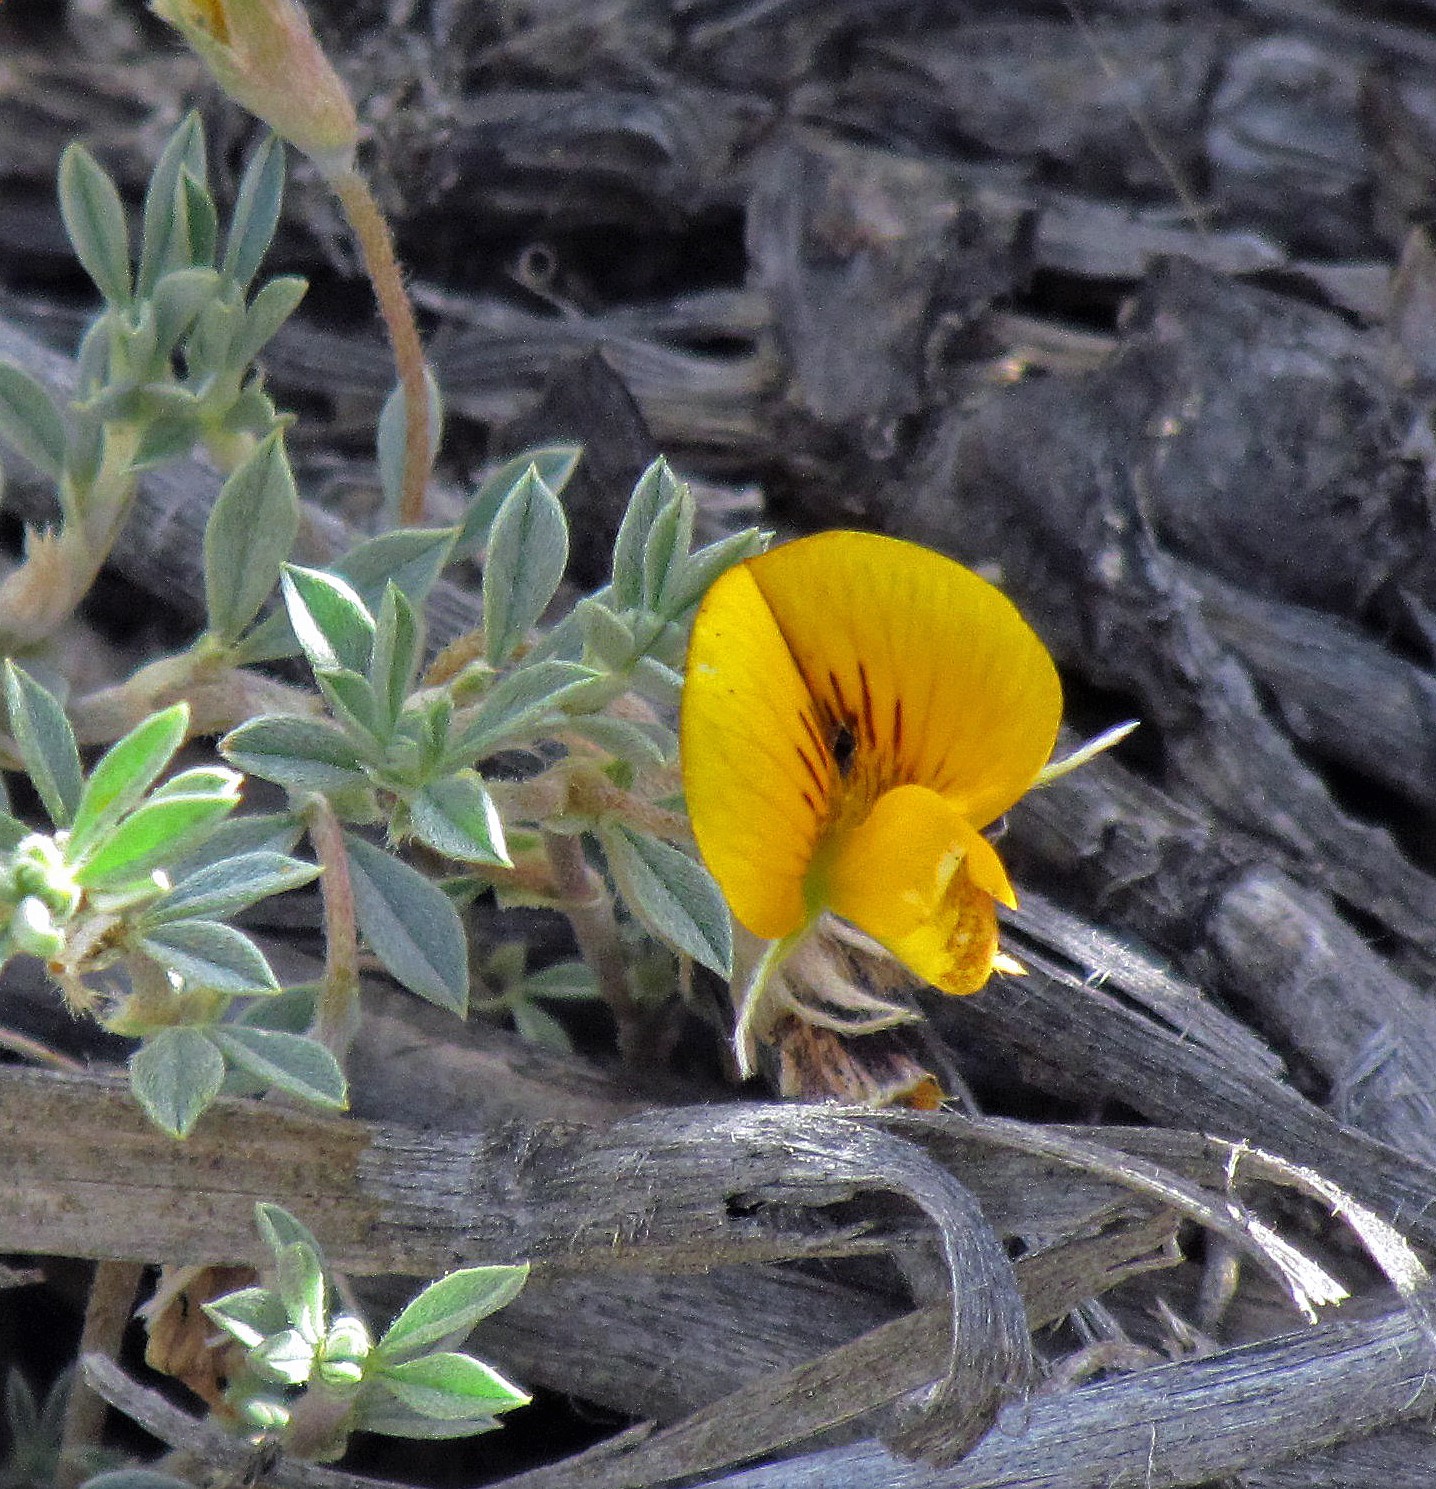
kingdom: Plantae
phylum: Tracheophyta
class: Magnoliopsida
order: Fabales
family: Fabaceae
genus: Adesmia
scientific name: Adesmia lotoides
